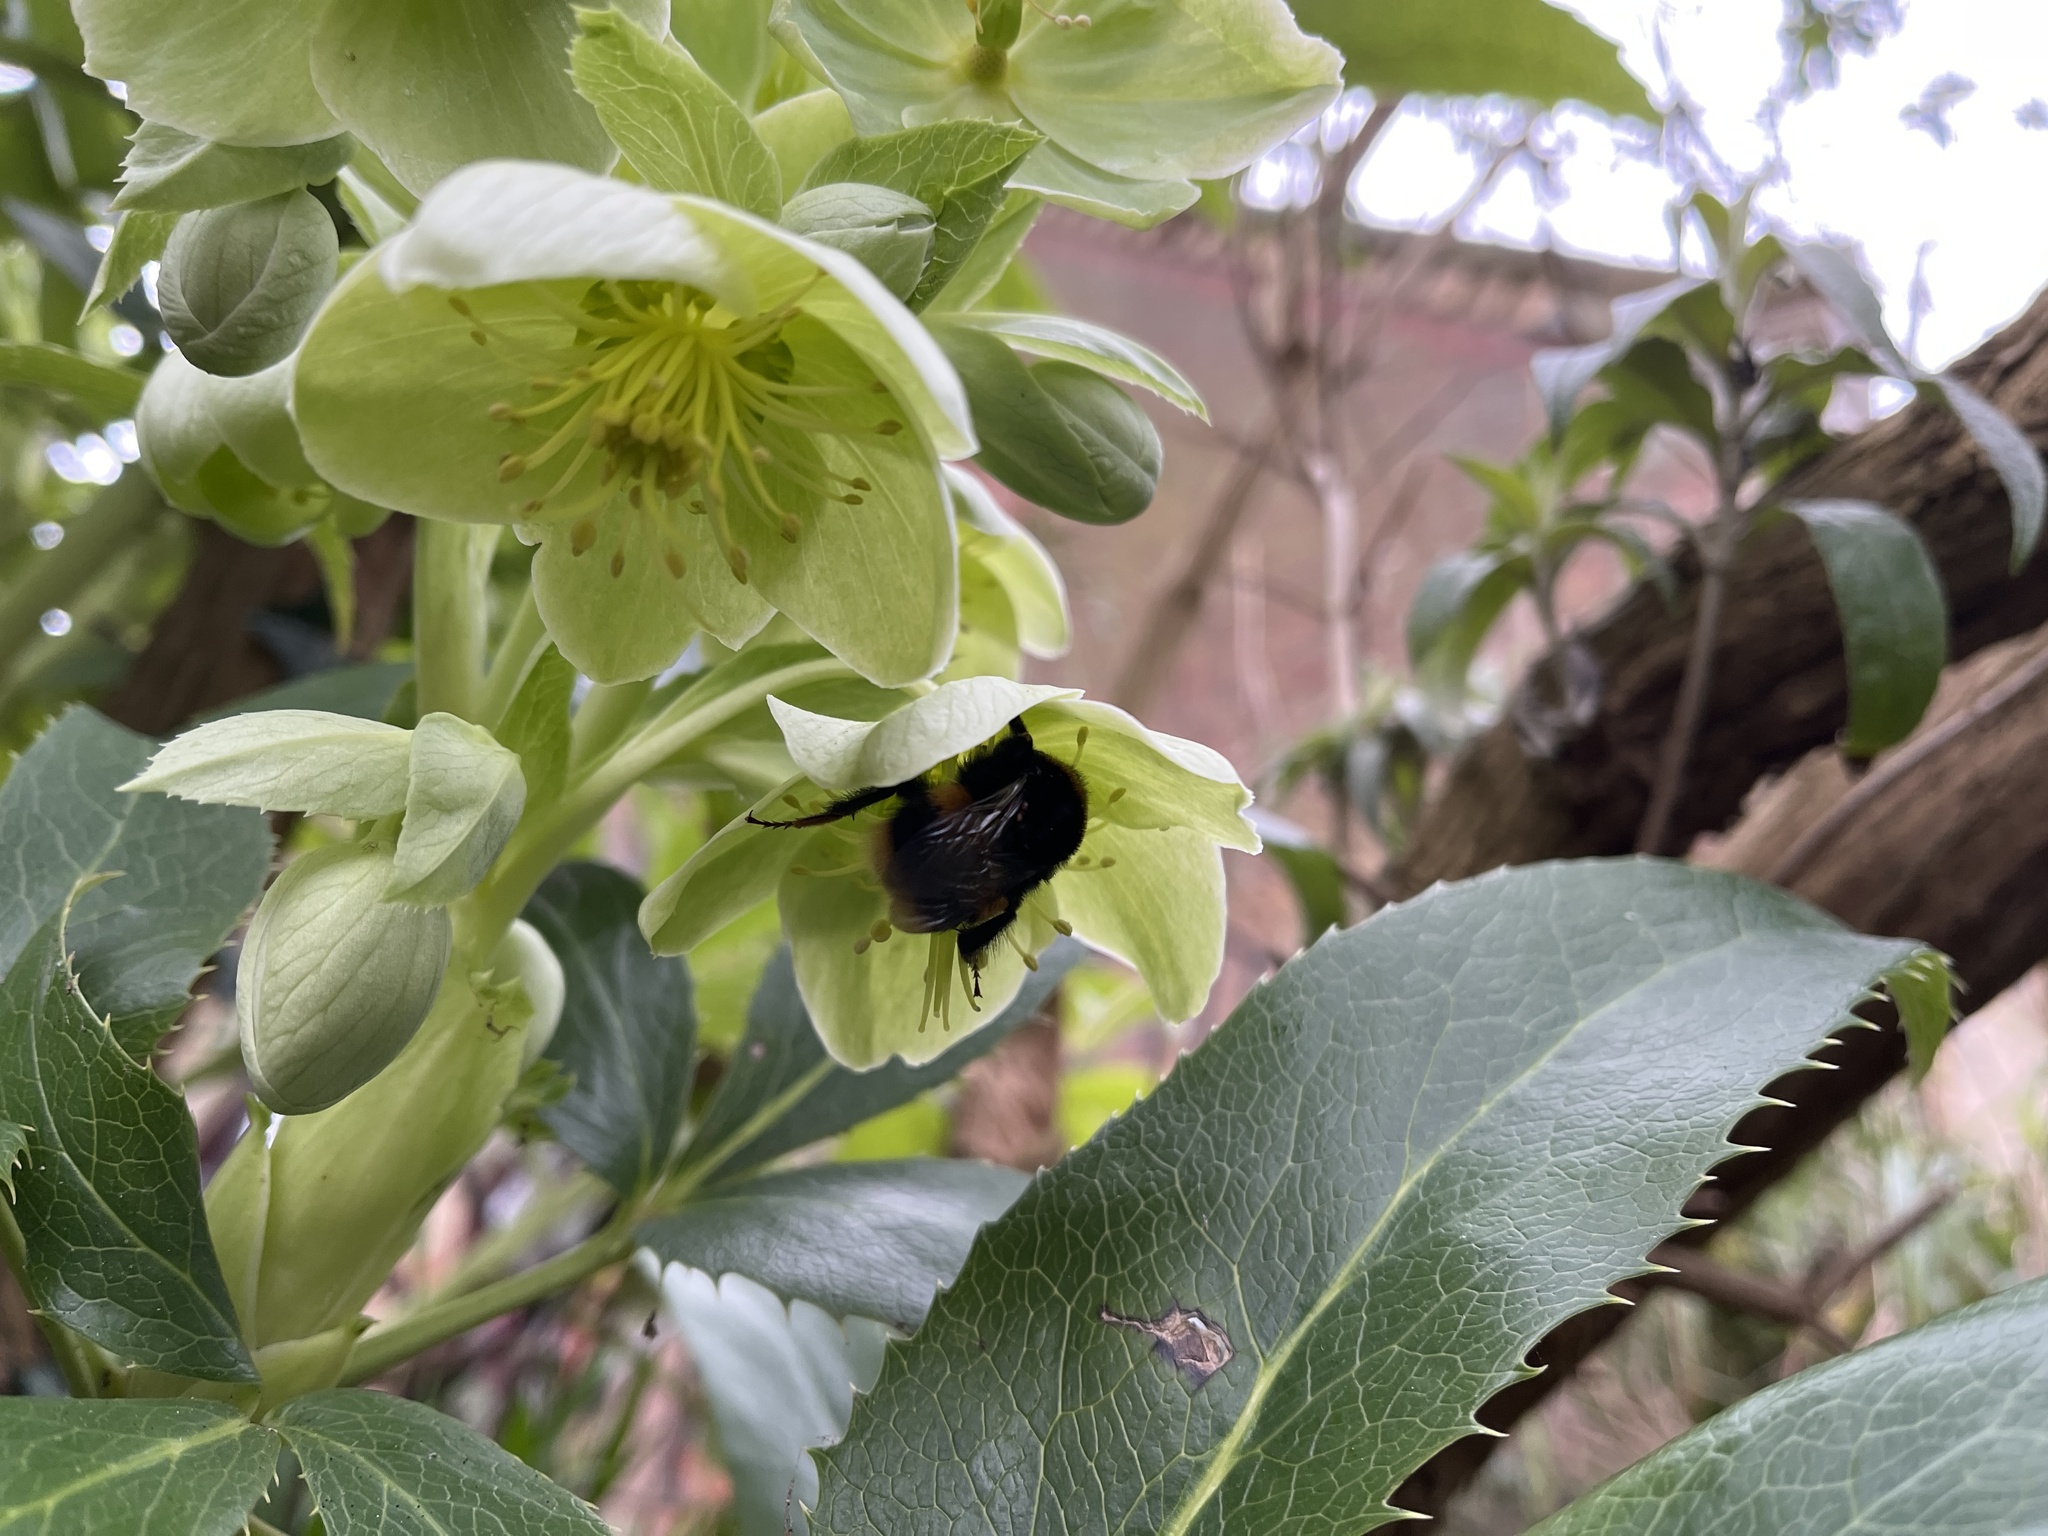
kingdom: Animalia
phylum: Arthropoda
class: Insecta
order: Hymenoptera
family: Apidae
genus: Bombus
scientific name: Bombus terrestris
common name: Buff-tailed bumblebee
